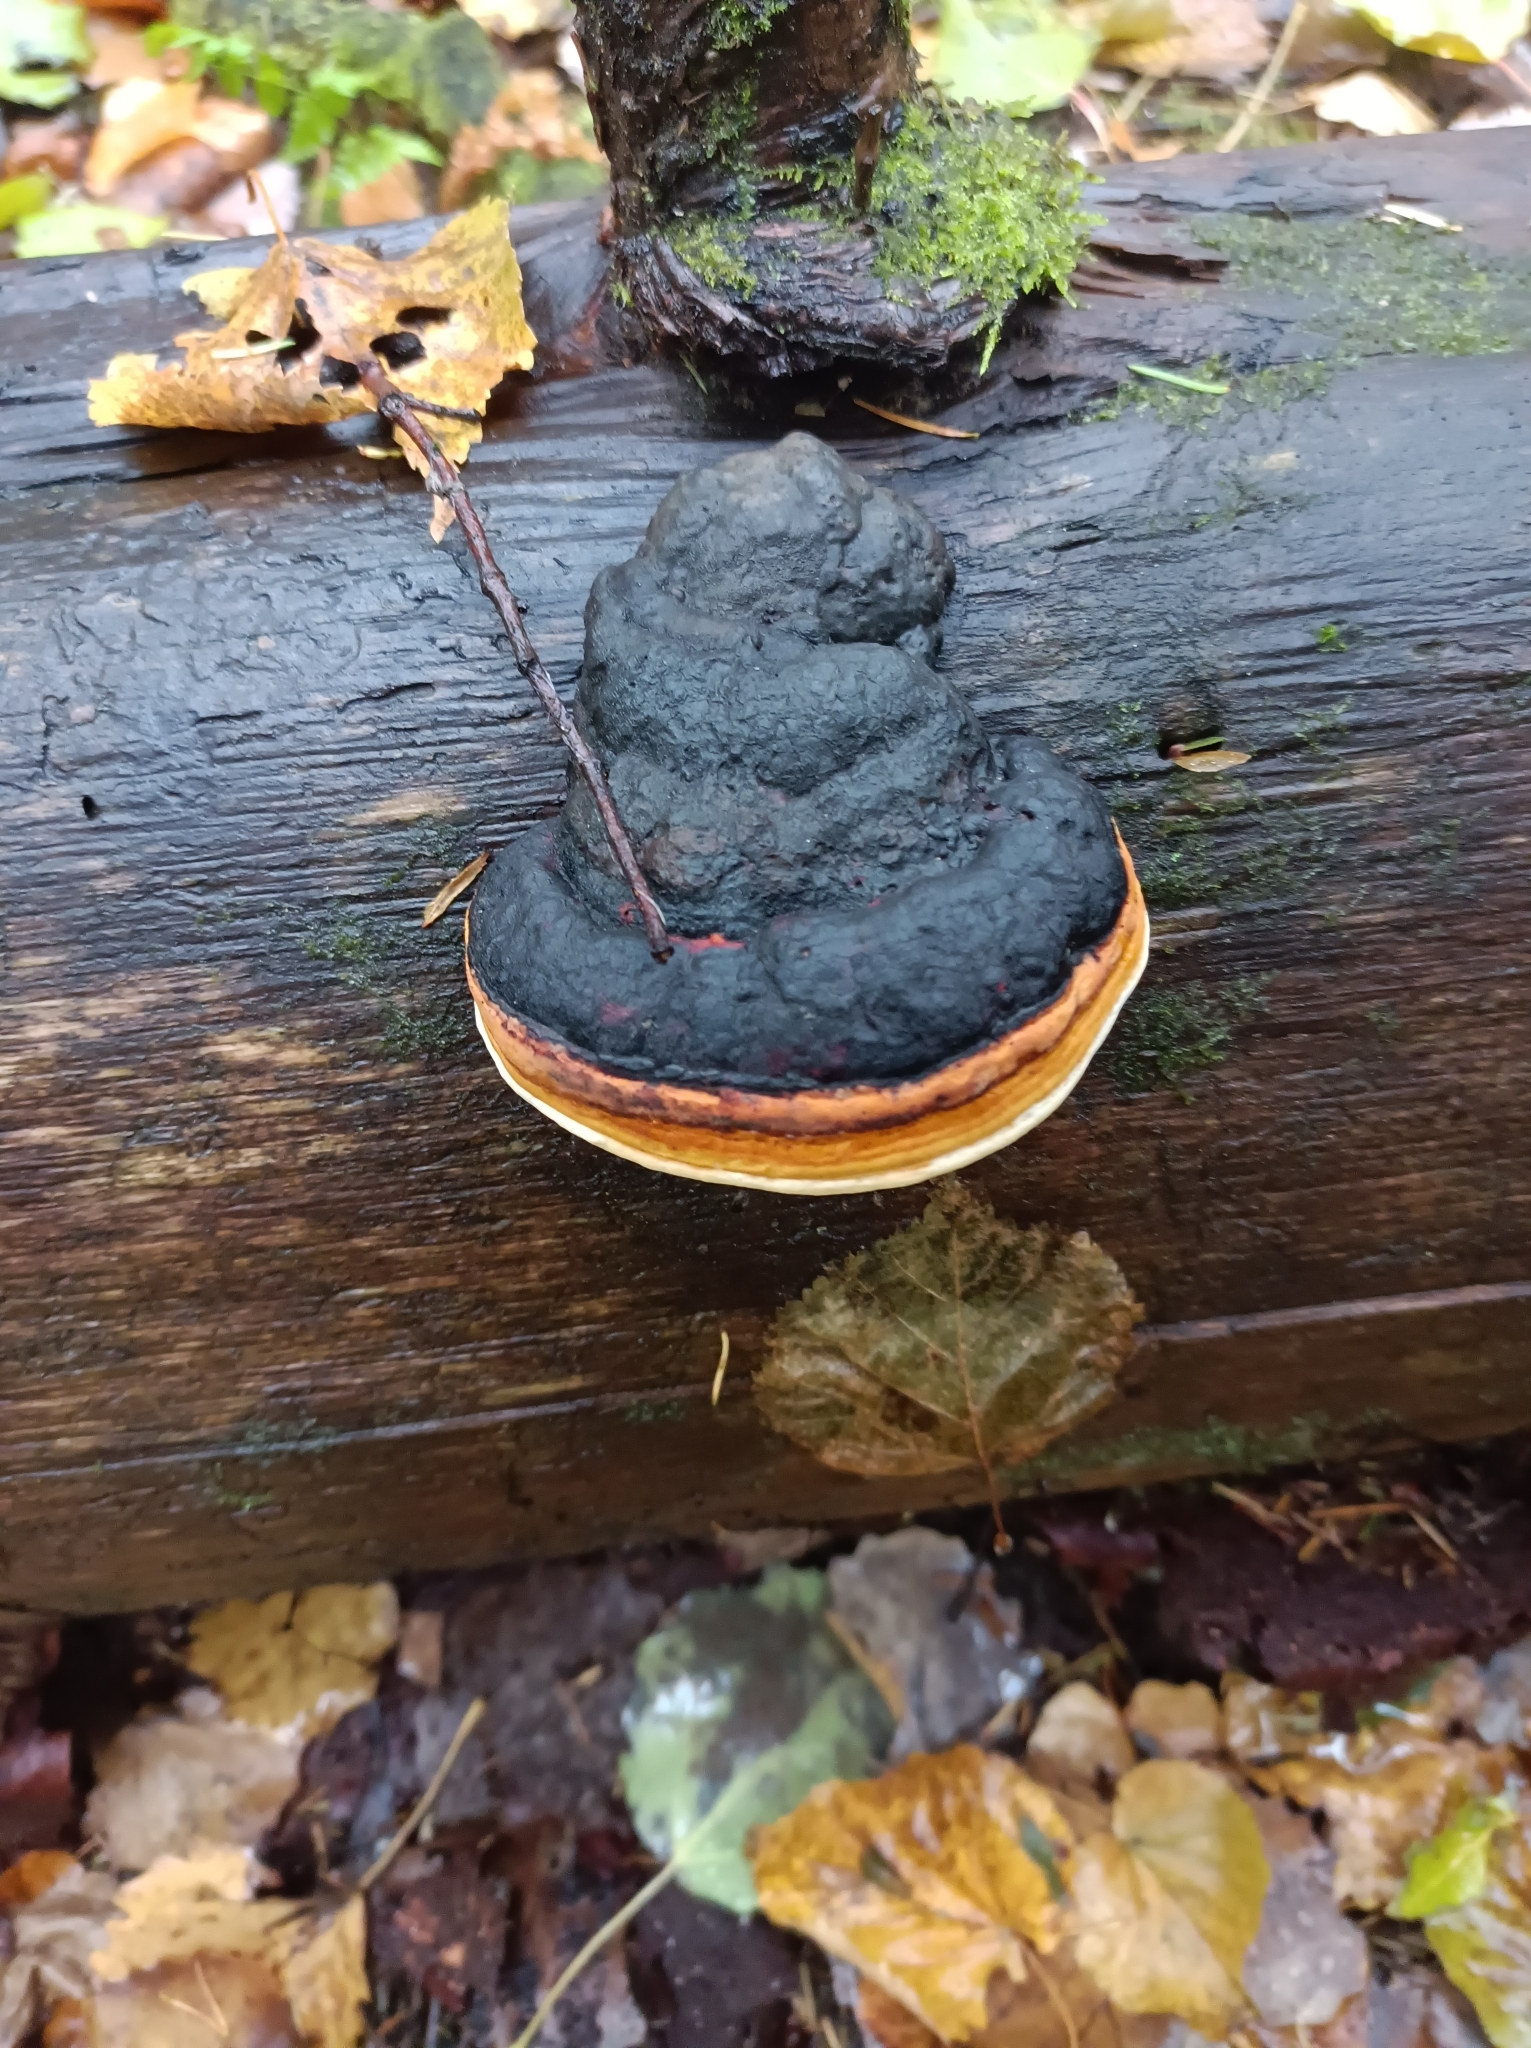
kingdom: Fungi
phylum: Basidiomycota
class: Agaricomycetes
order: Polyporales
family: Fomitopsidaceae
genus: Fomitopsis
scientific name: Fomitopsis pinicola
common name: Red-belted bracket
